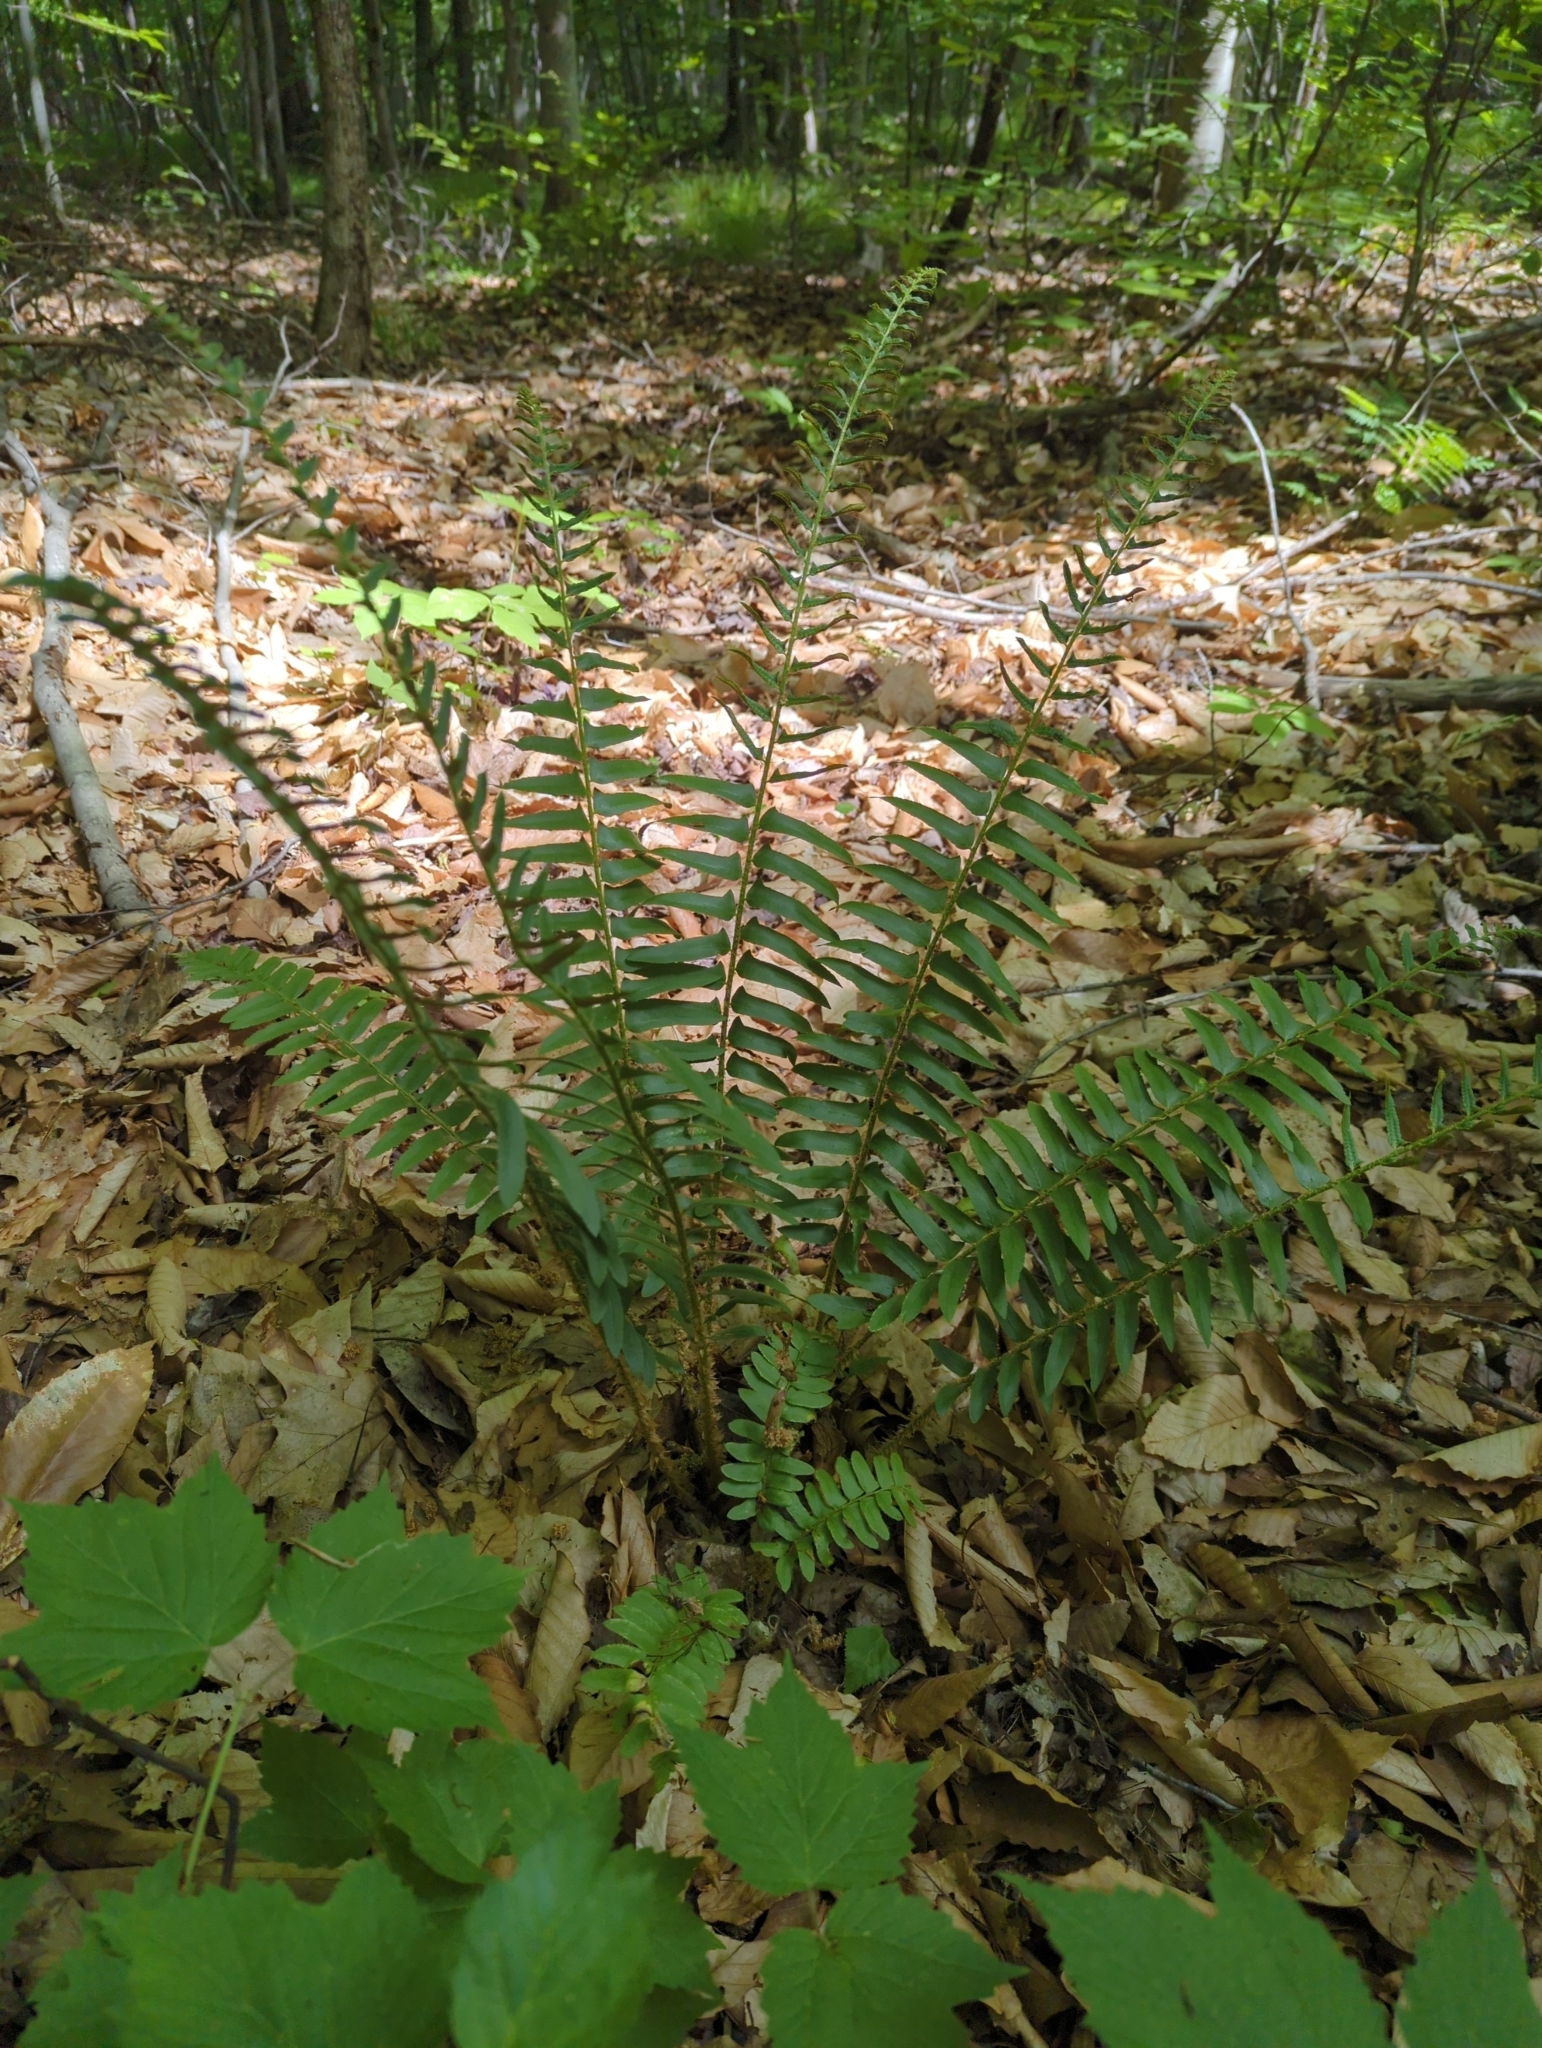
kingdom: Plantae
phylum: Tracheophyta
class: Polypodiopsida
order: Polypodiales
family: Dryopteridaceae
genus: Polystichum
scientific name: Polystichum acrostichoides
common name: Christmas fern
